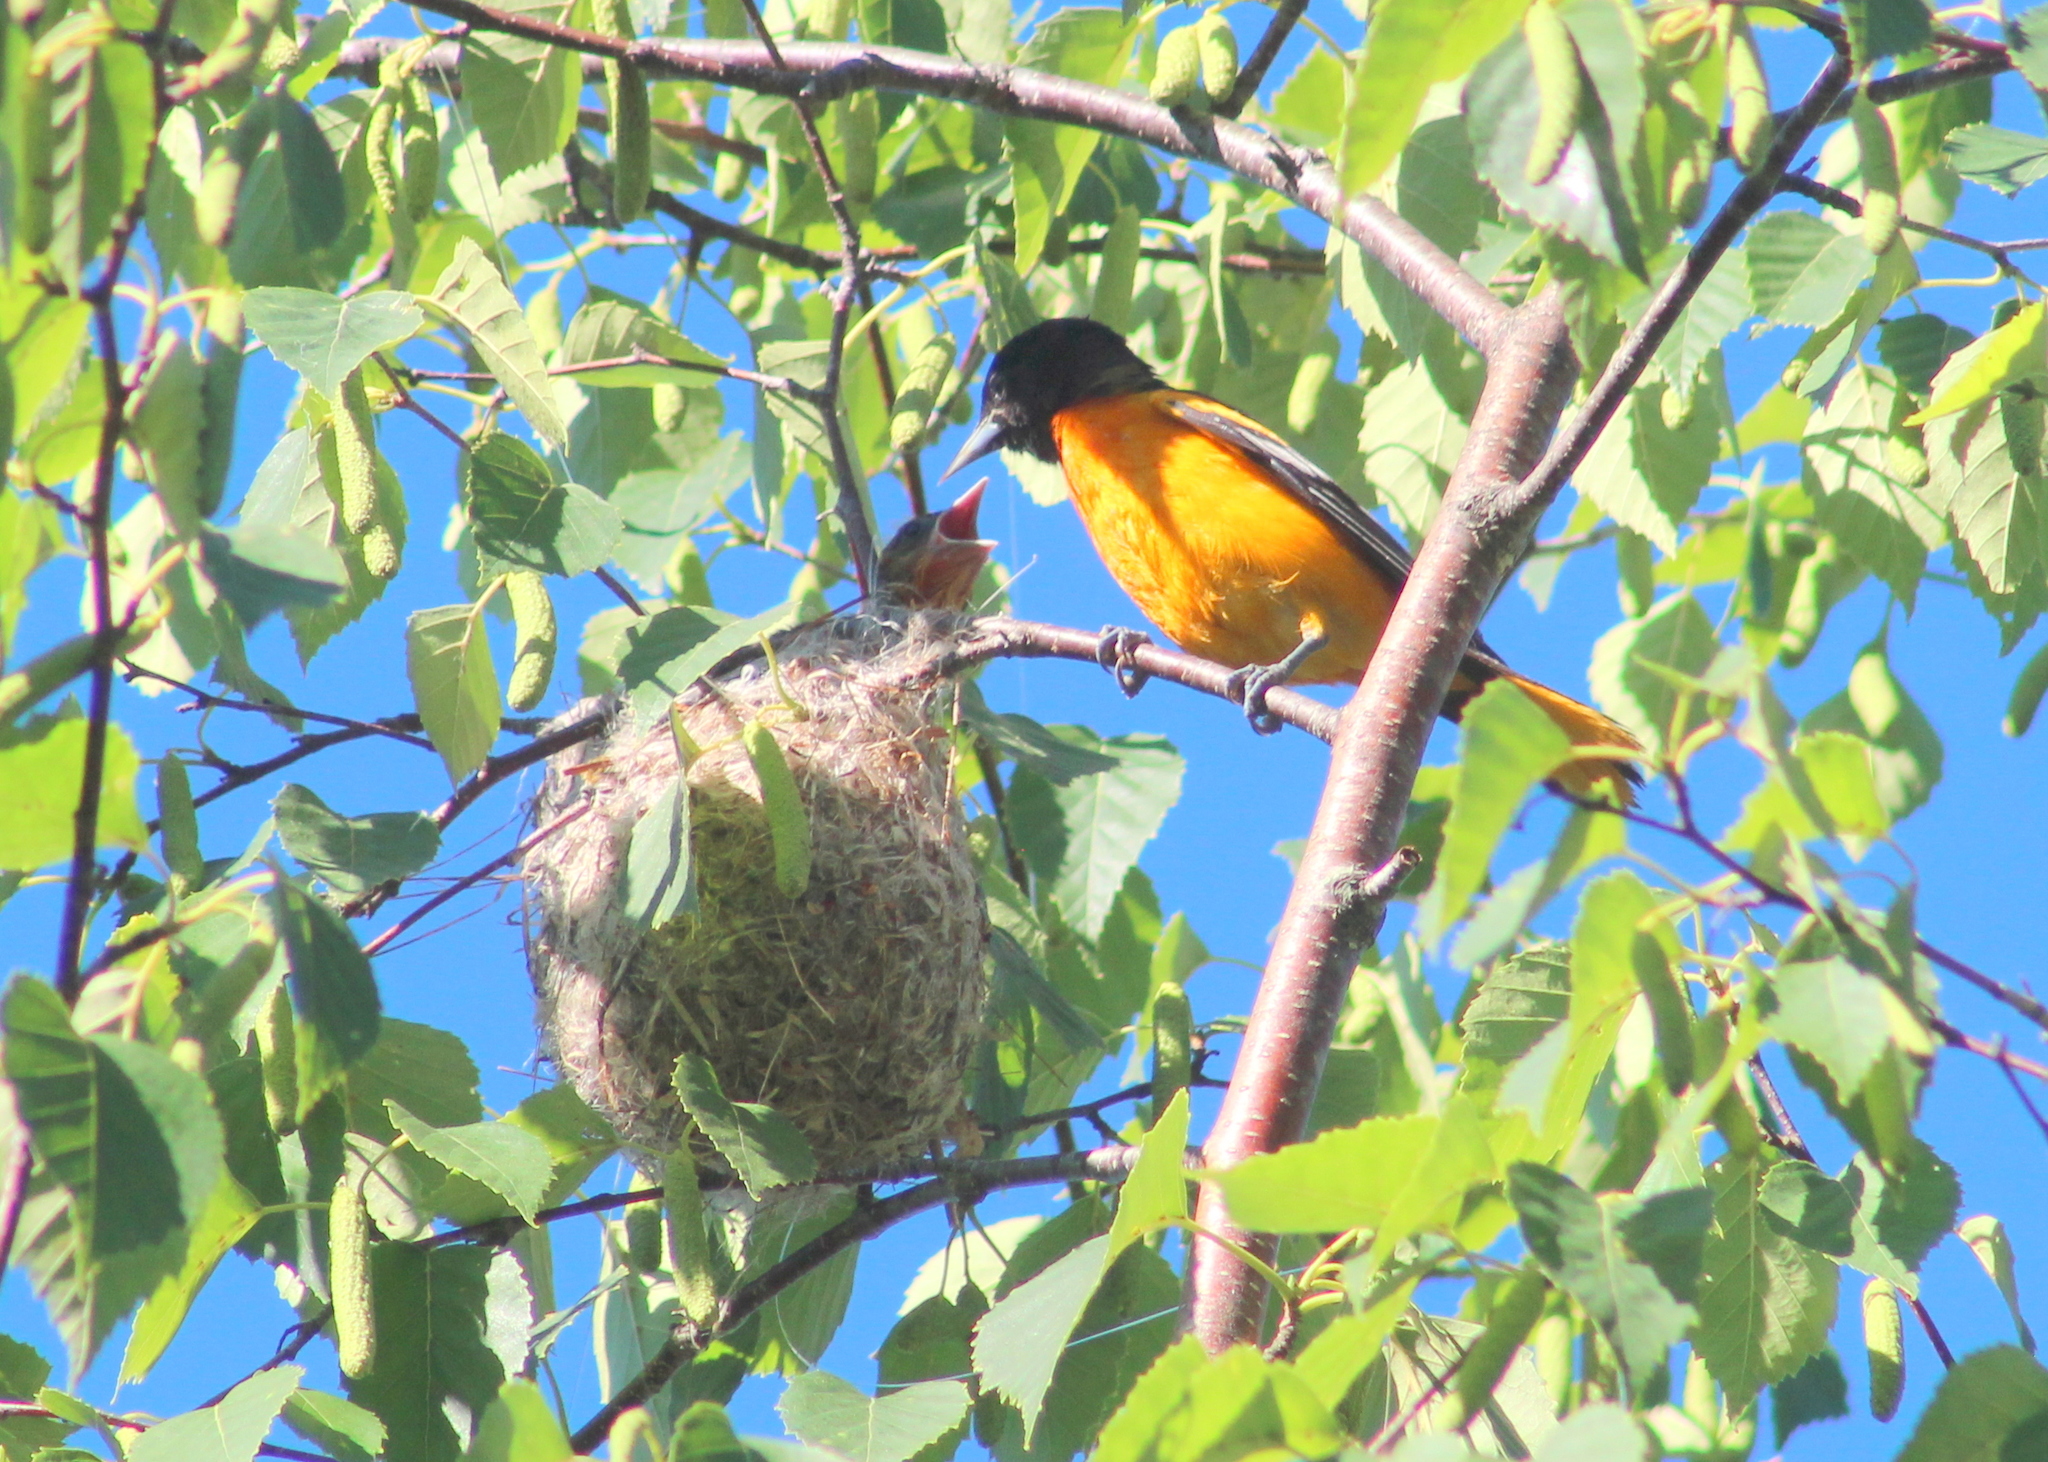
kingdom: Animalia
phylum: Chordata
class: Aves
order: Passeriformes
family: Icteridae
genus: Icterus
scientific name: Icterus galbula
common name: Baltimore oriole
